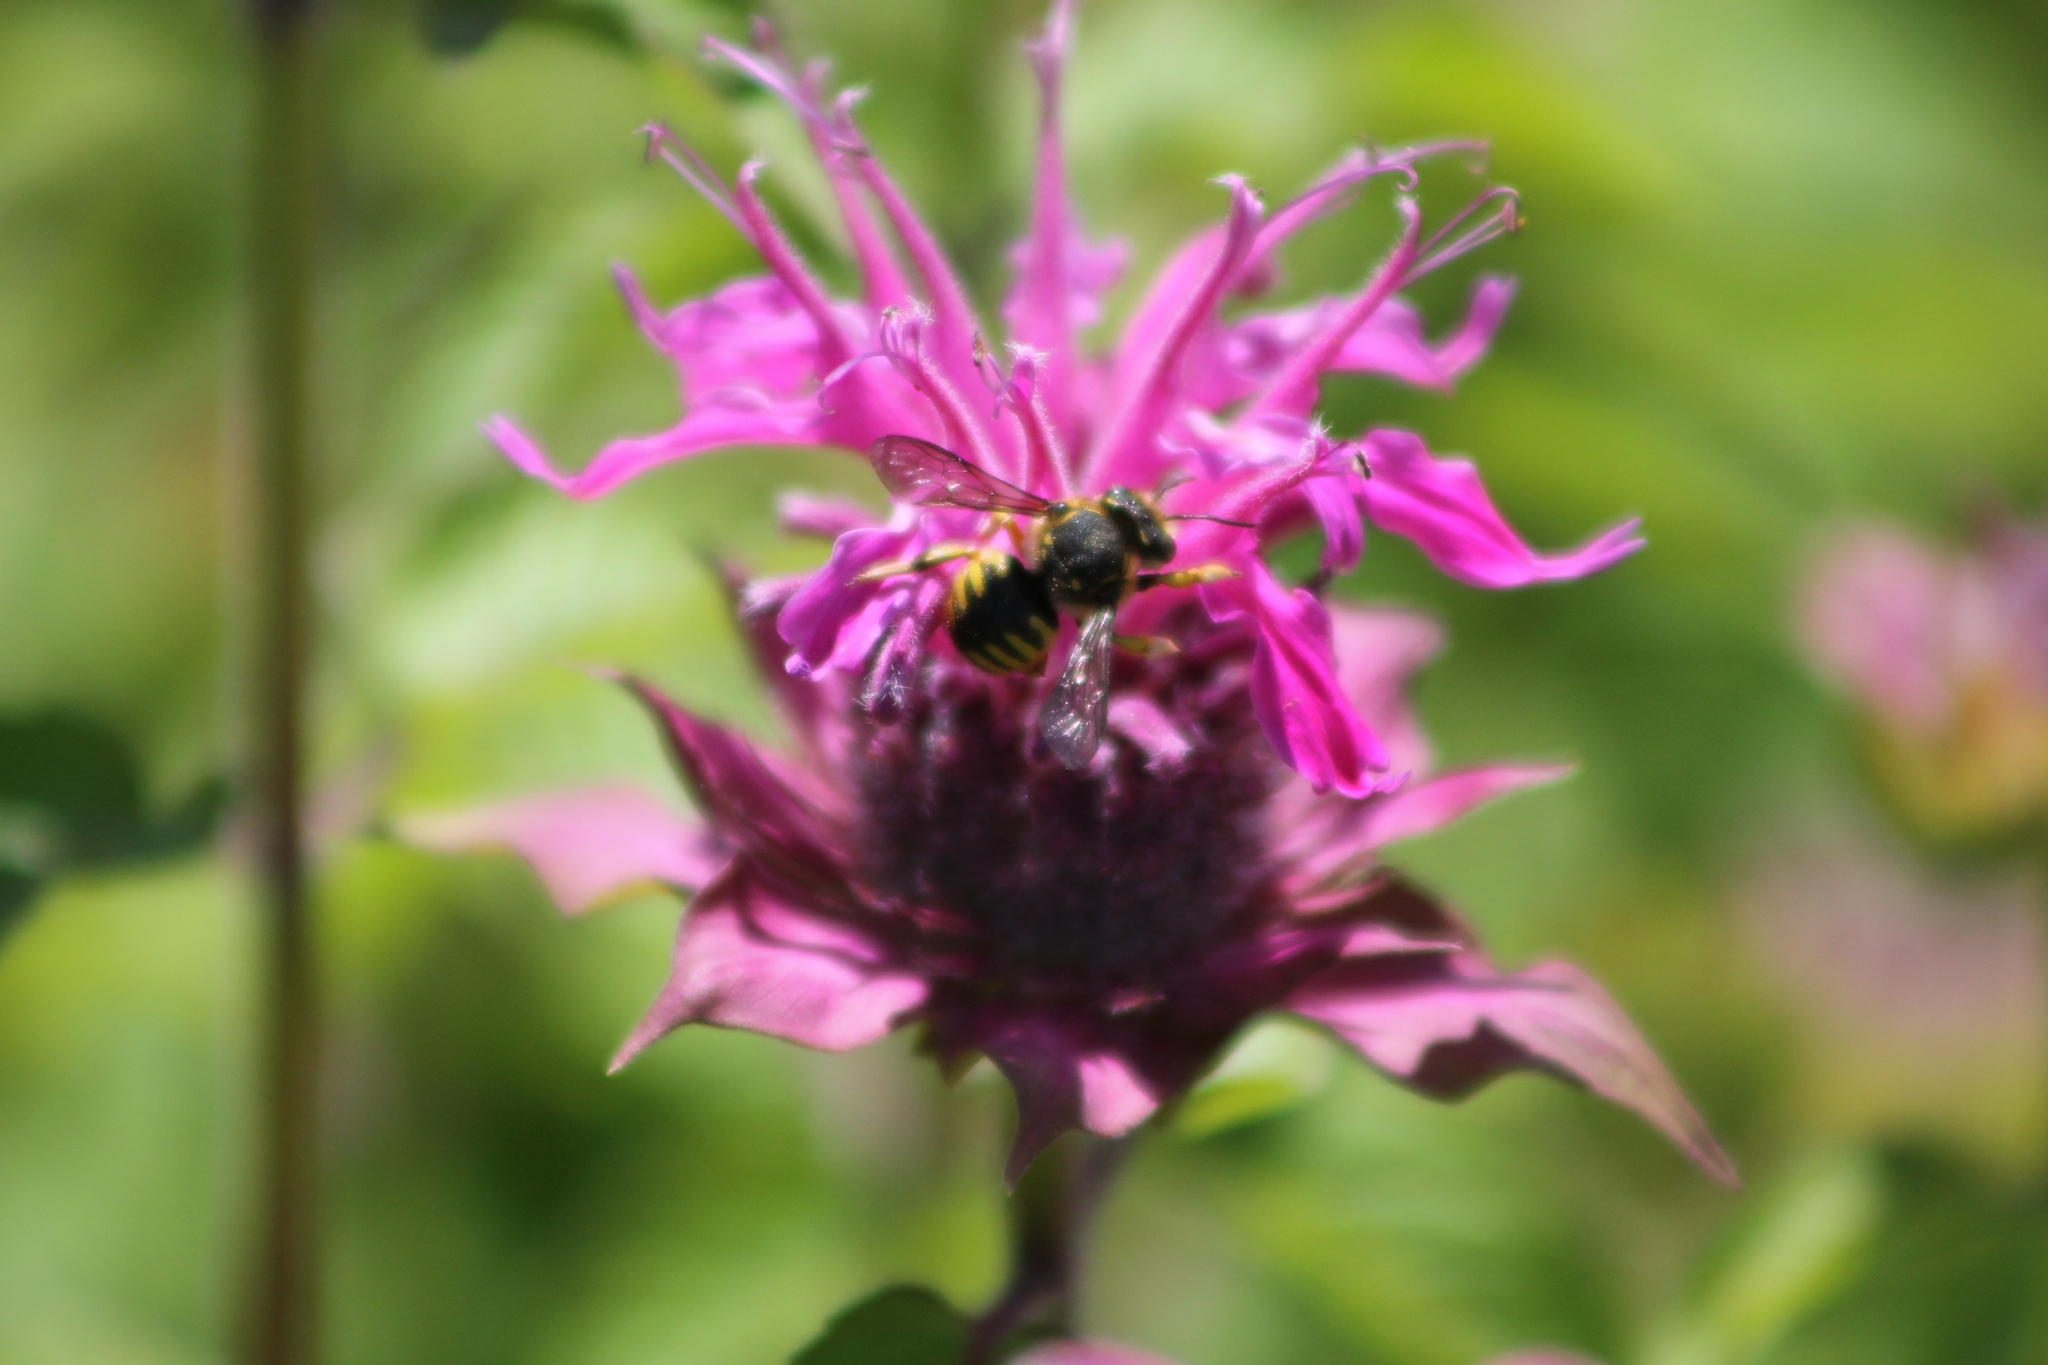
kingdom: Animalia
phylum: Arthropoda
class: Insecta
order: Hymenoptera
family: Megachilidae
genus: Anthidium
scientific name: Anthidium manicatum
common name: Wool carder bee
